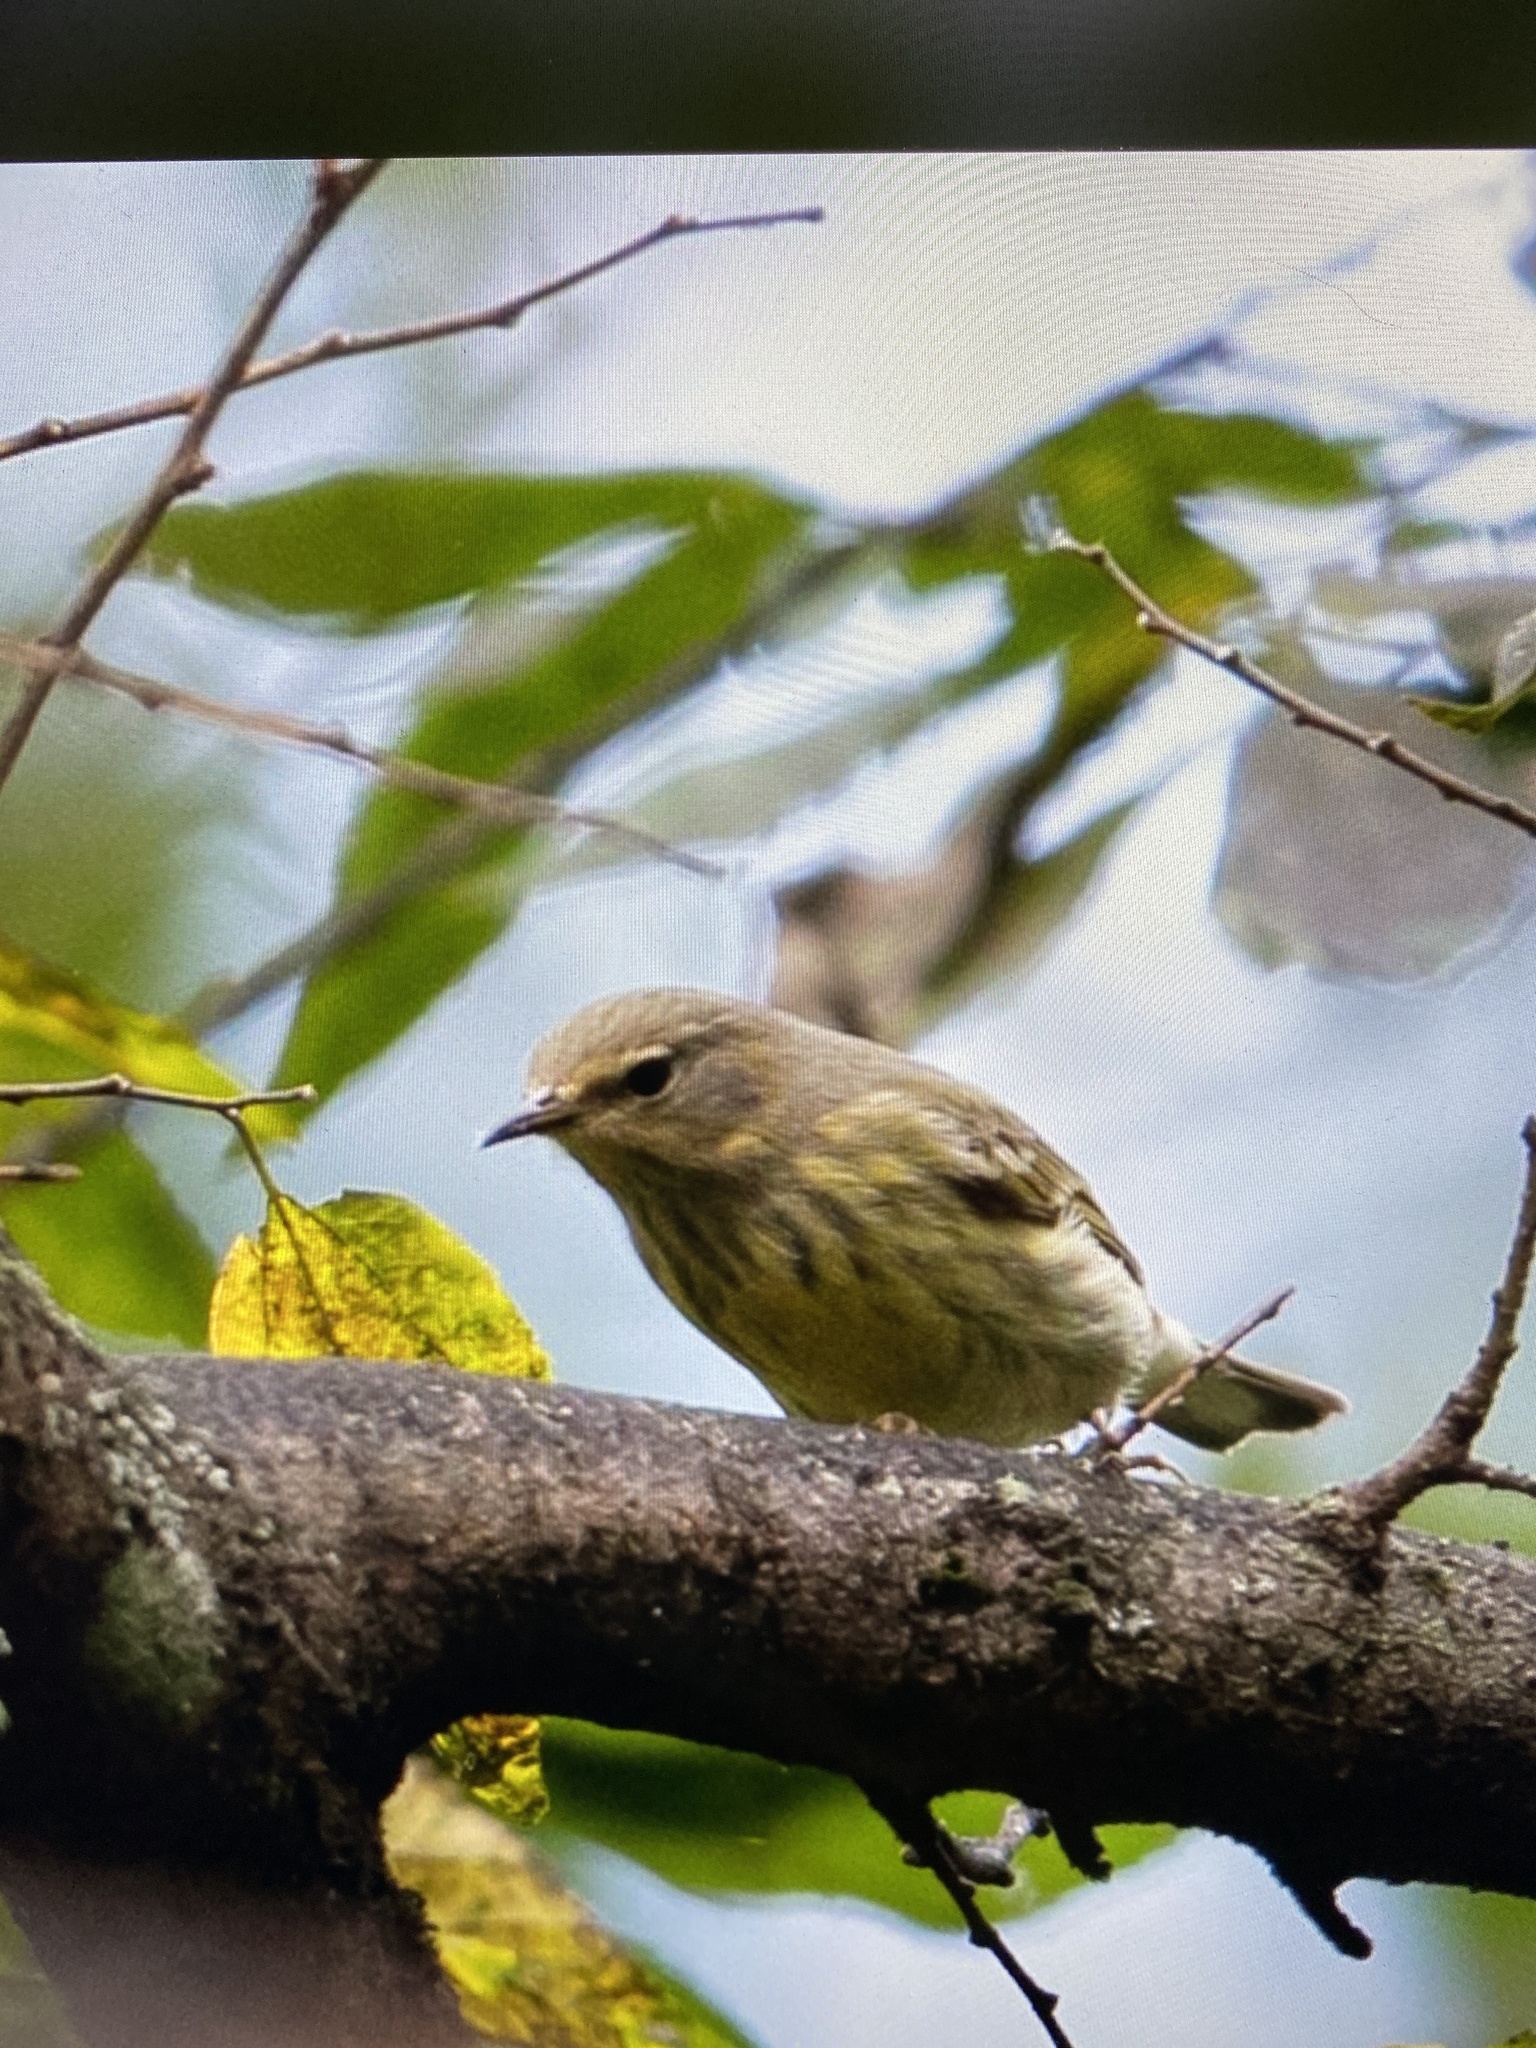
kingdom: Animalia
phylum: Chordata
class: Aves
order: Passeriformes
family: Parulidae
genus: Setophaga
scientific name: Setophaga tigrina
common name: Cape may warbler
